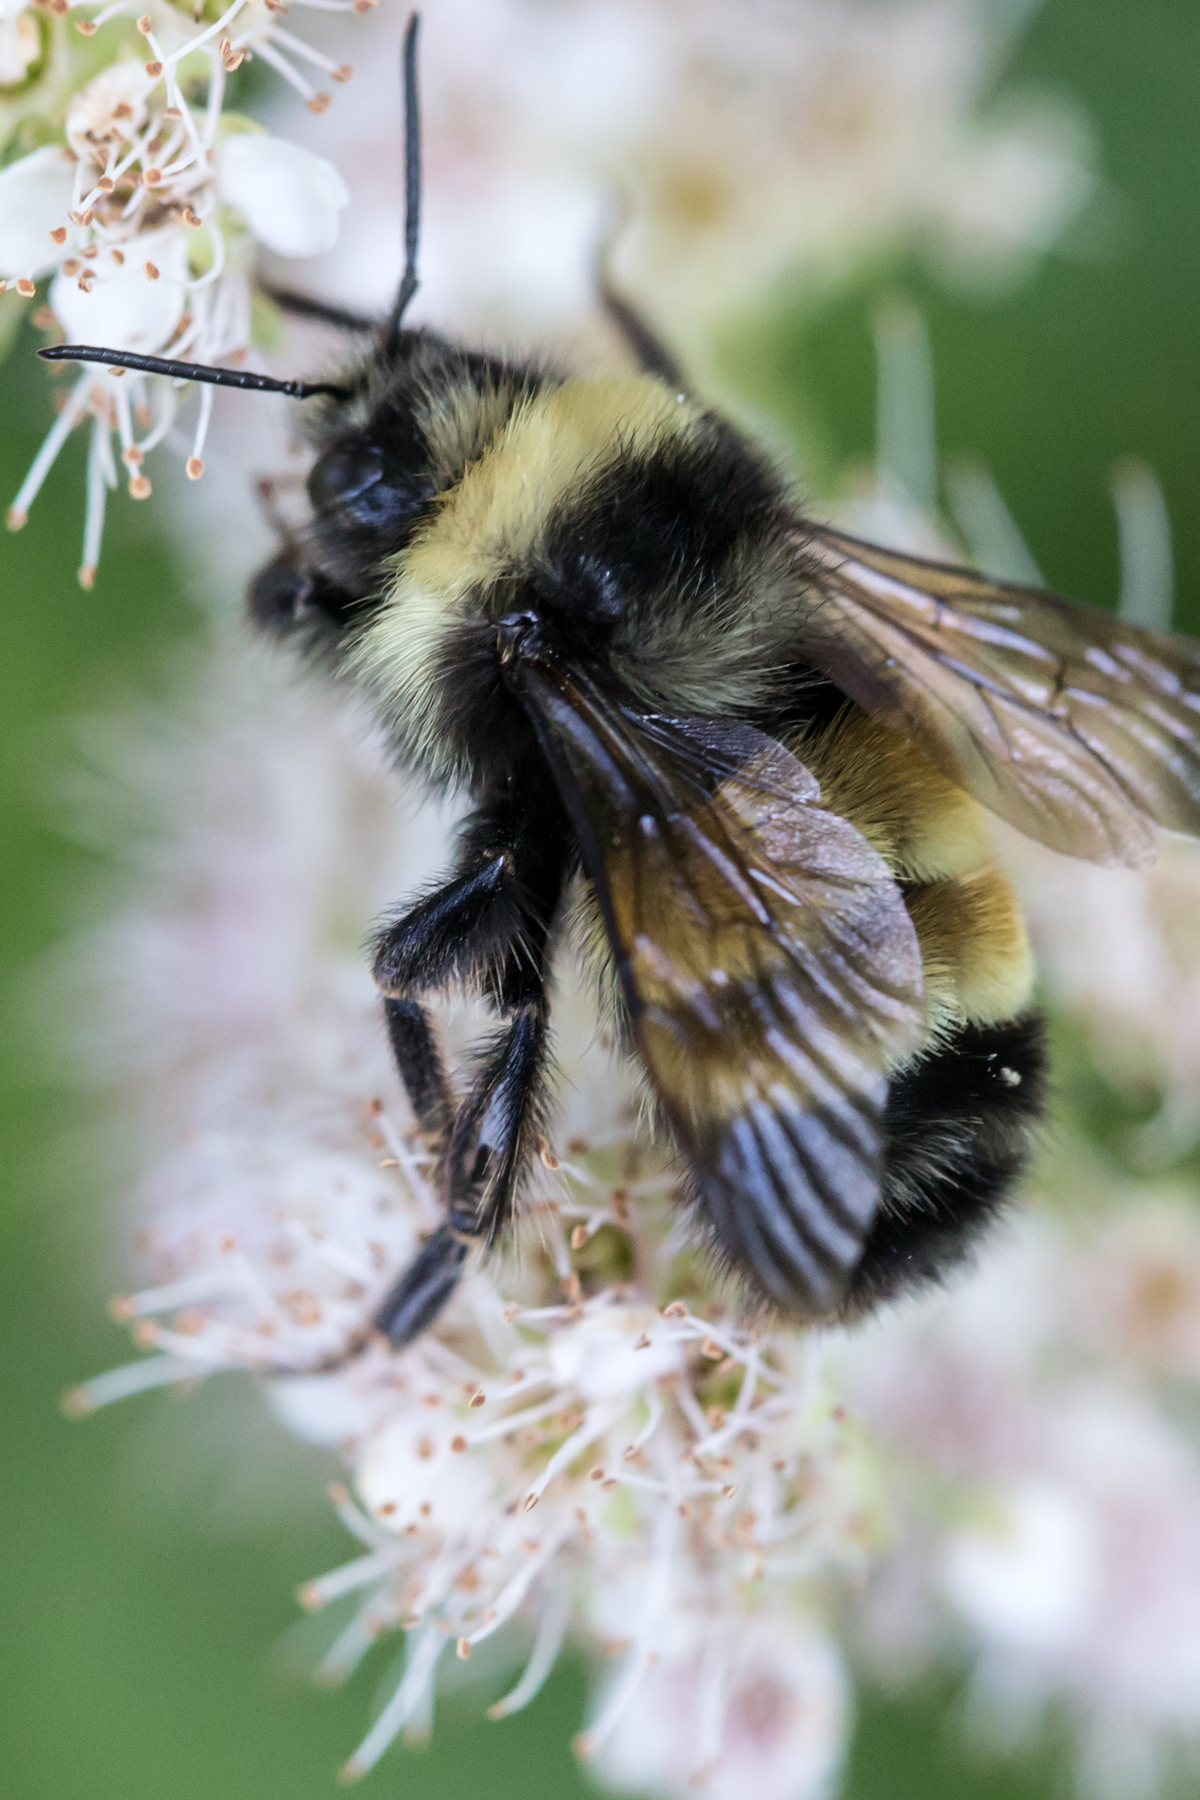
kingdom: Animalia
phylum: Arthropoda
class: Insecta
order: Hymenoptera
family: Apidae
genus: Bombus
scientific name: Bombus terricola
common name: Yellow-banded bumble bee
